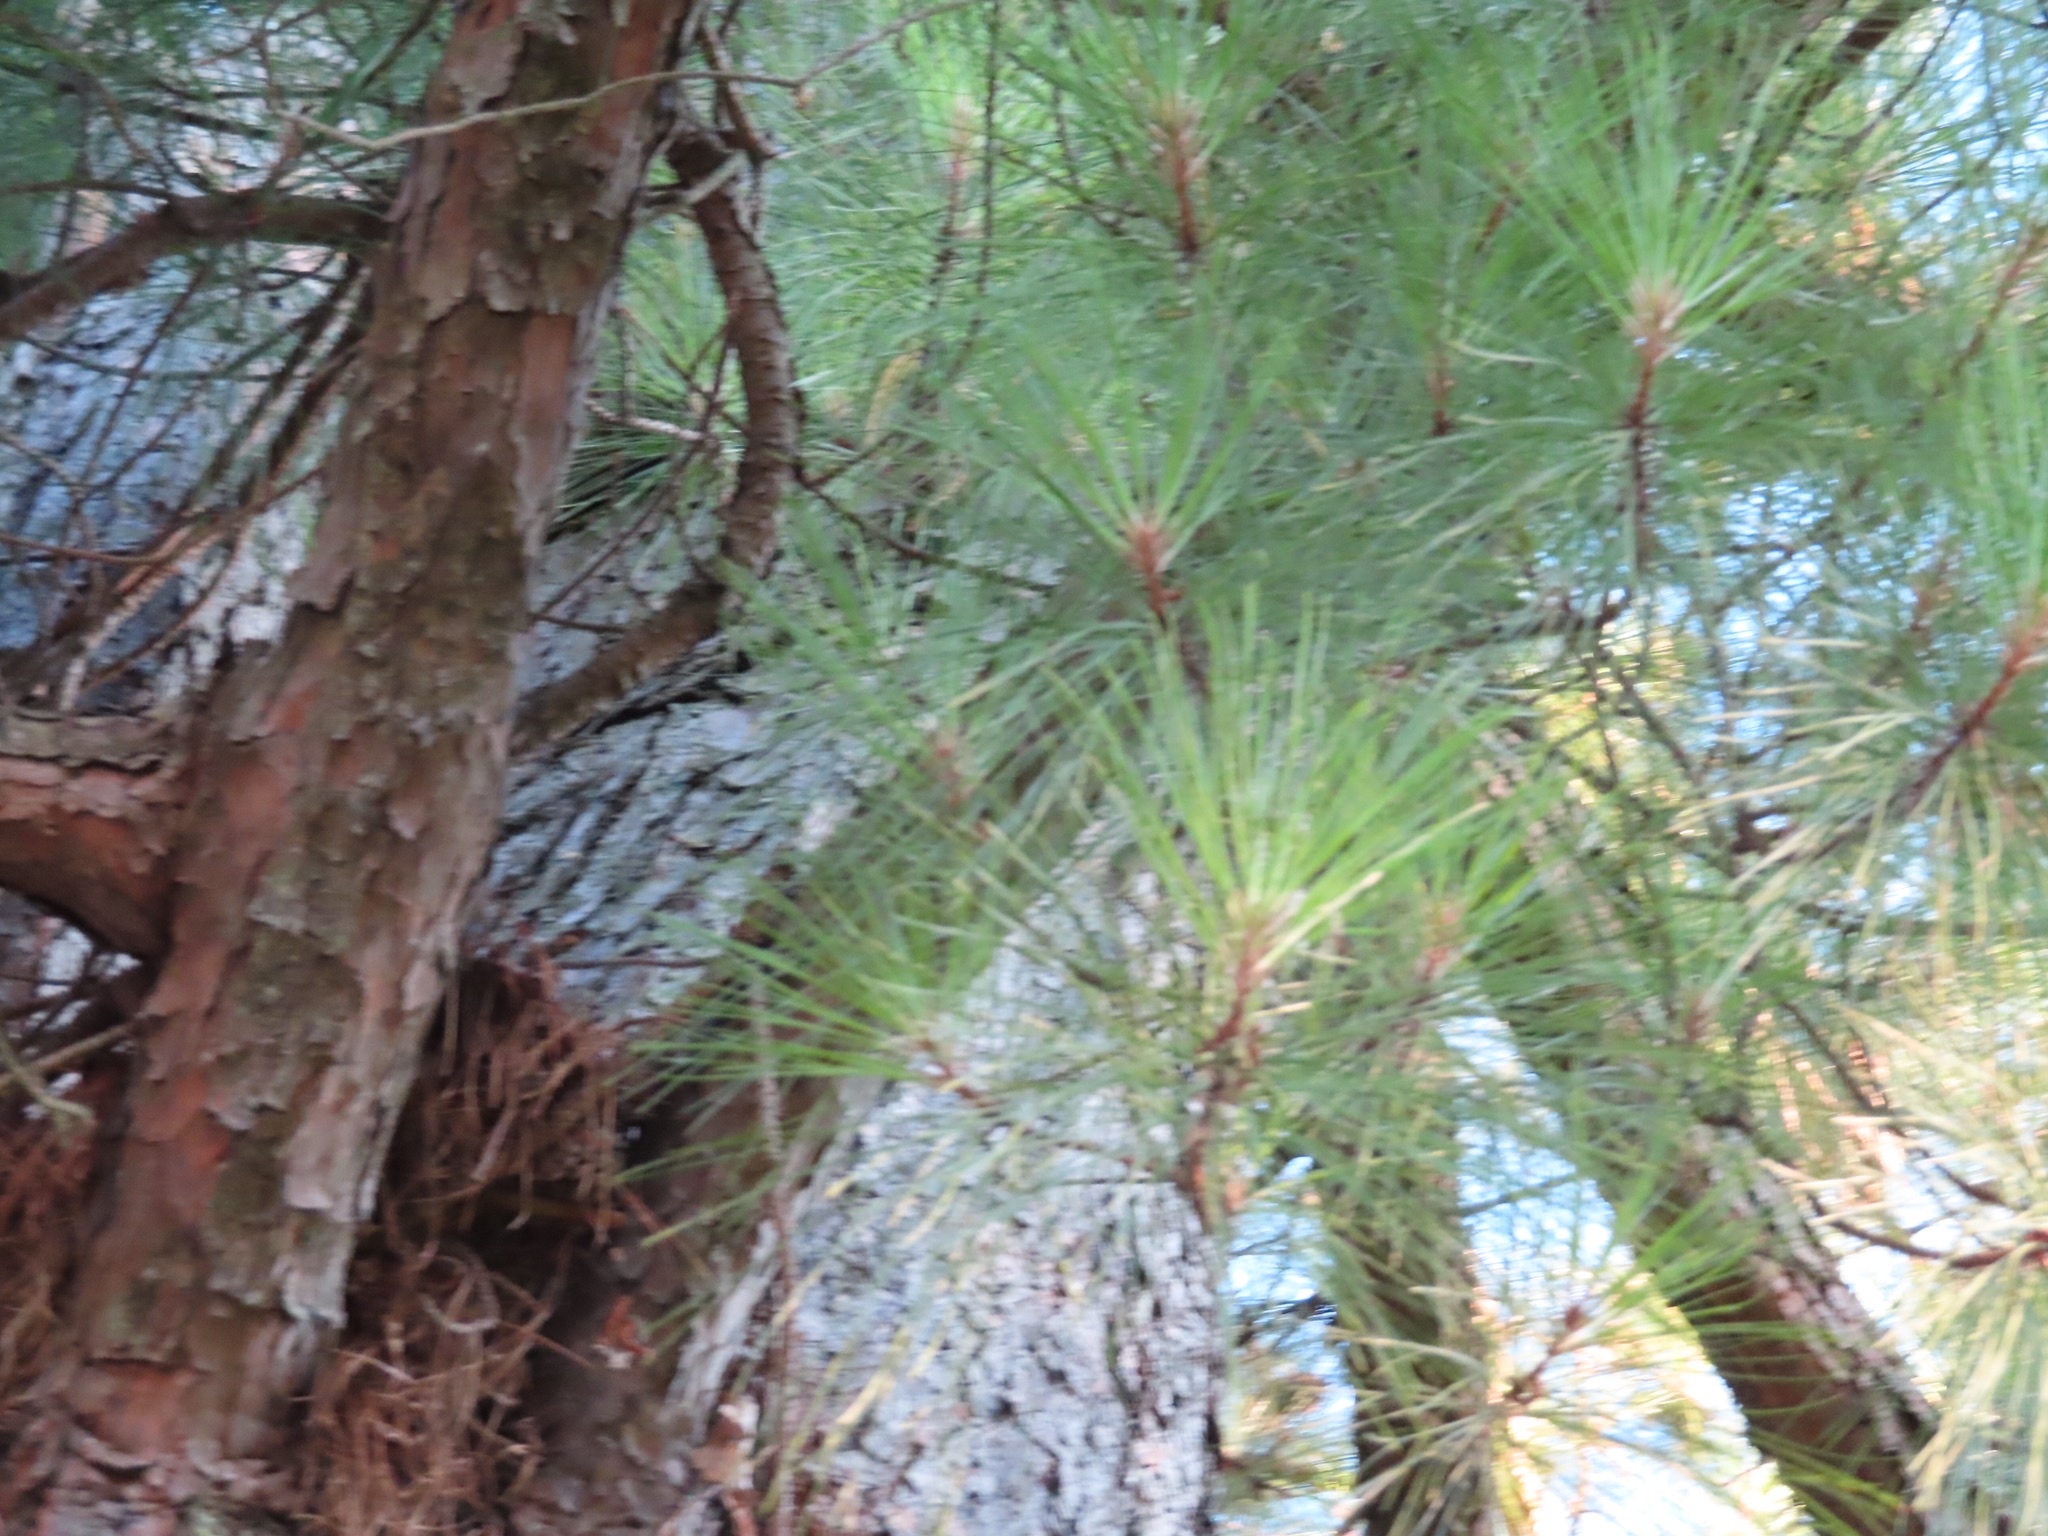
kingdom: Plantae
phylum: Tracheophyta
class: Pinopsida
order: Pinales
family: Pinaceae
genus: Pinus
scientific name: Pinus taeda
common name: Loblolly pine
